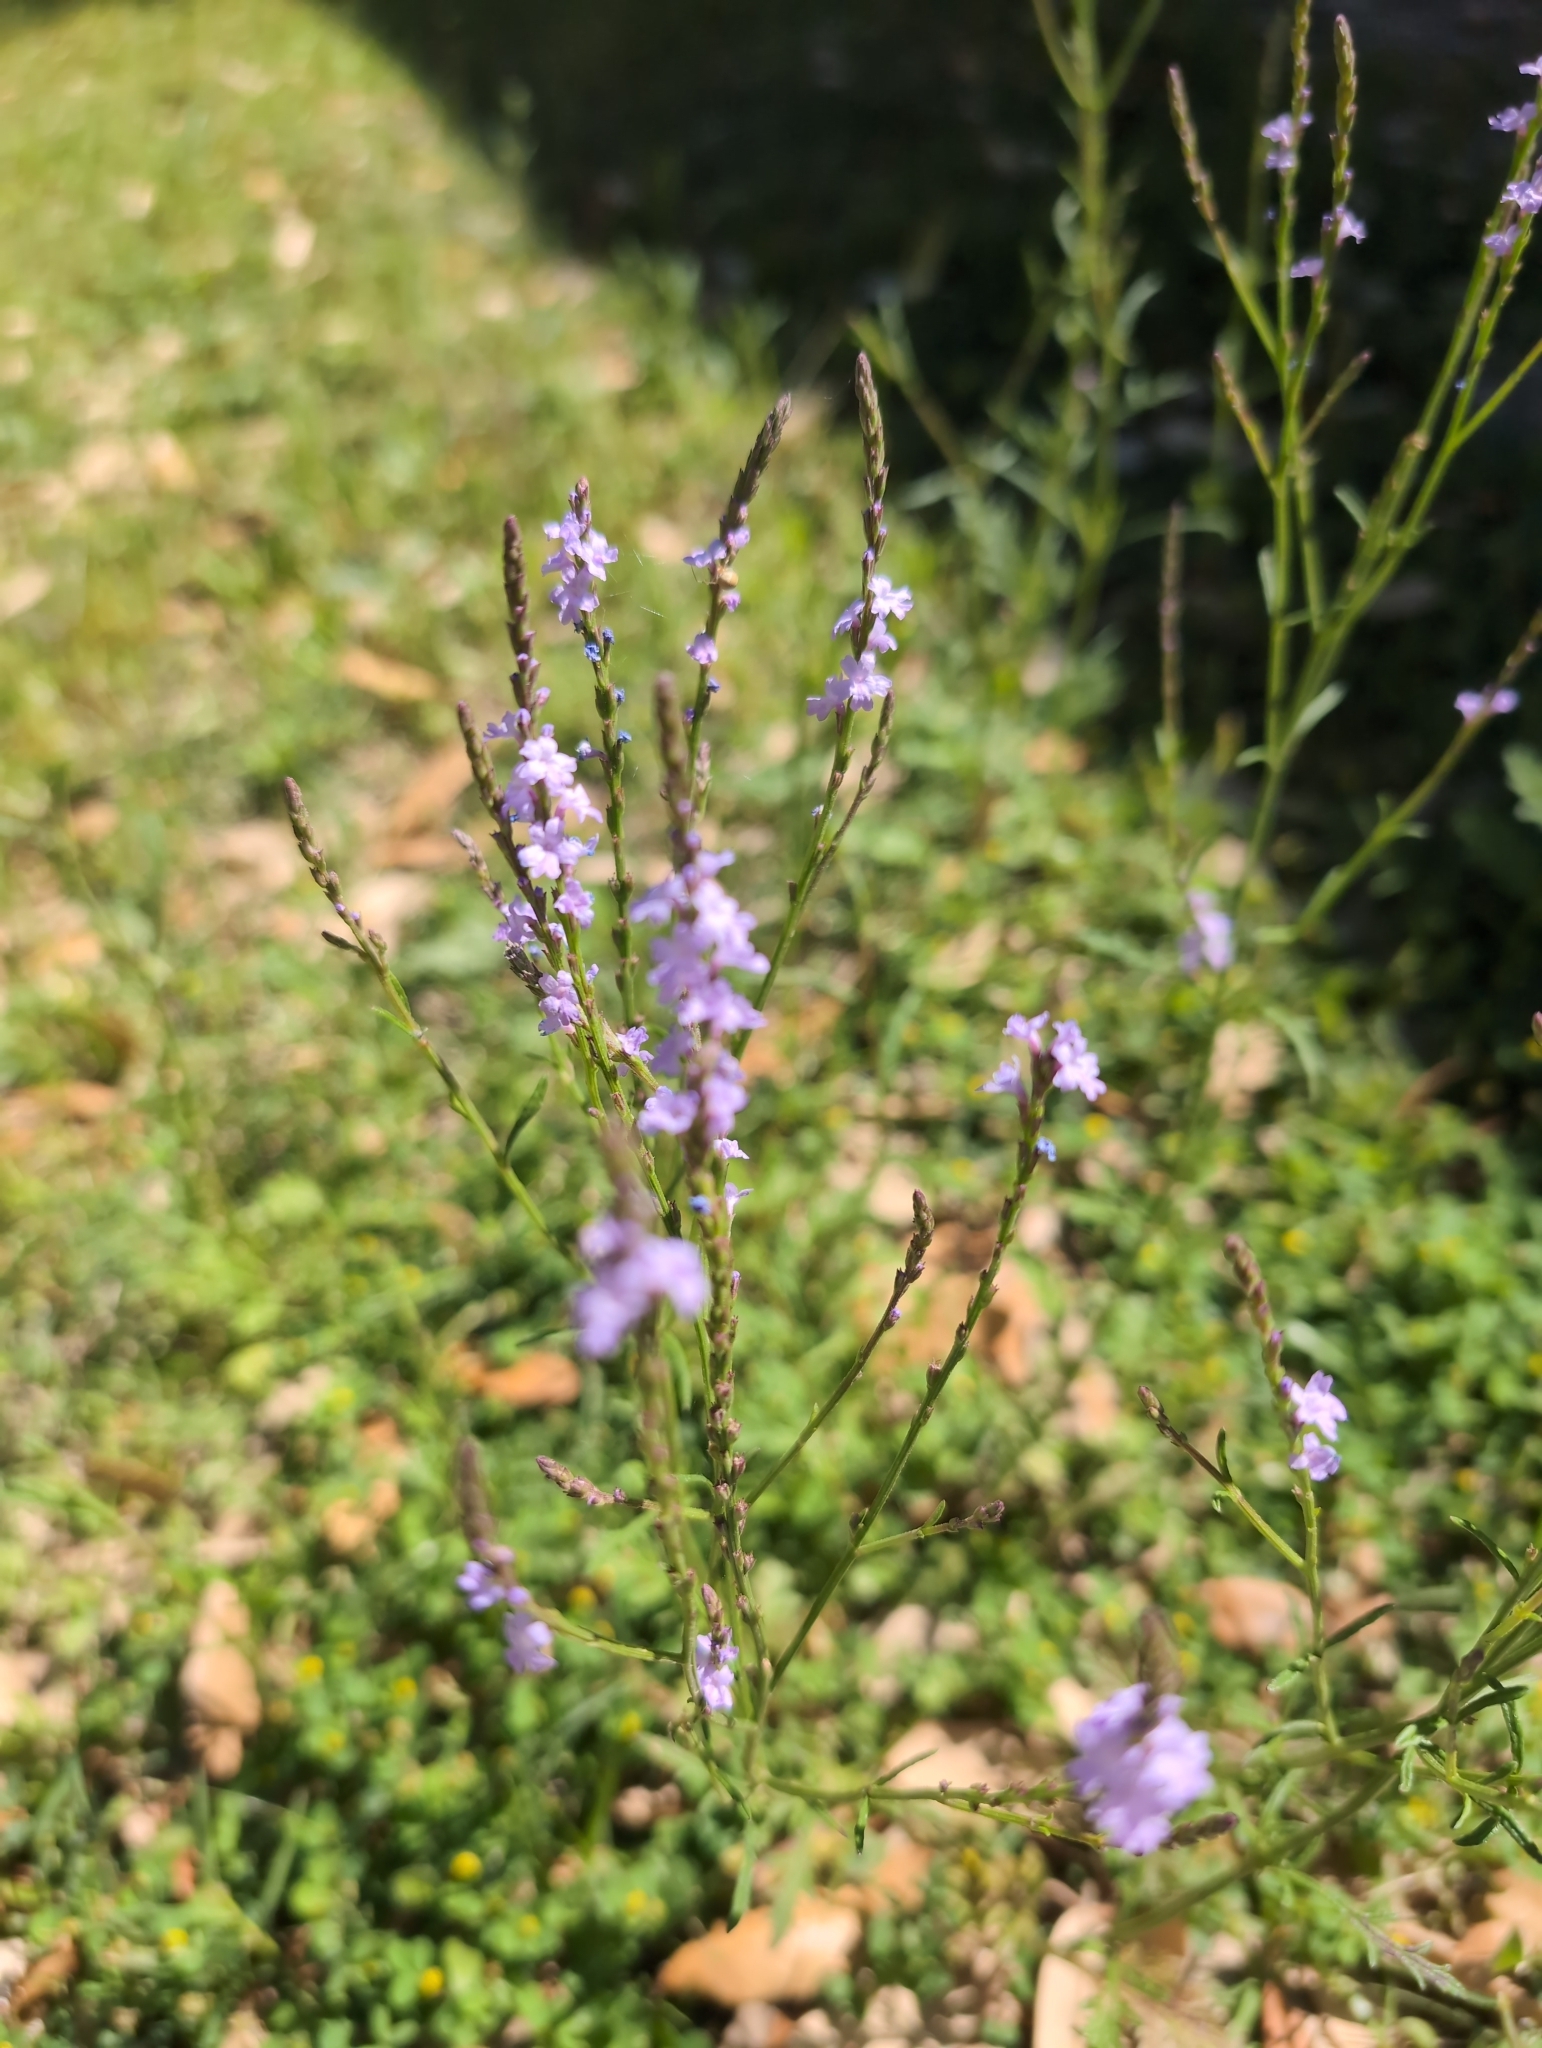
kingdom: Plantae
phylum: Tracheophyta
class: Magnoliopsida
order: Lamiales
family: Verbenaceae
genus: Verbena
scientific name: Verbena halei
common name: Texas vervain
